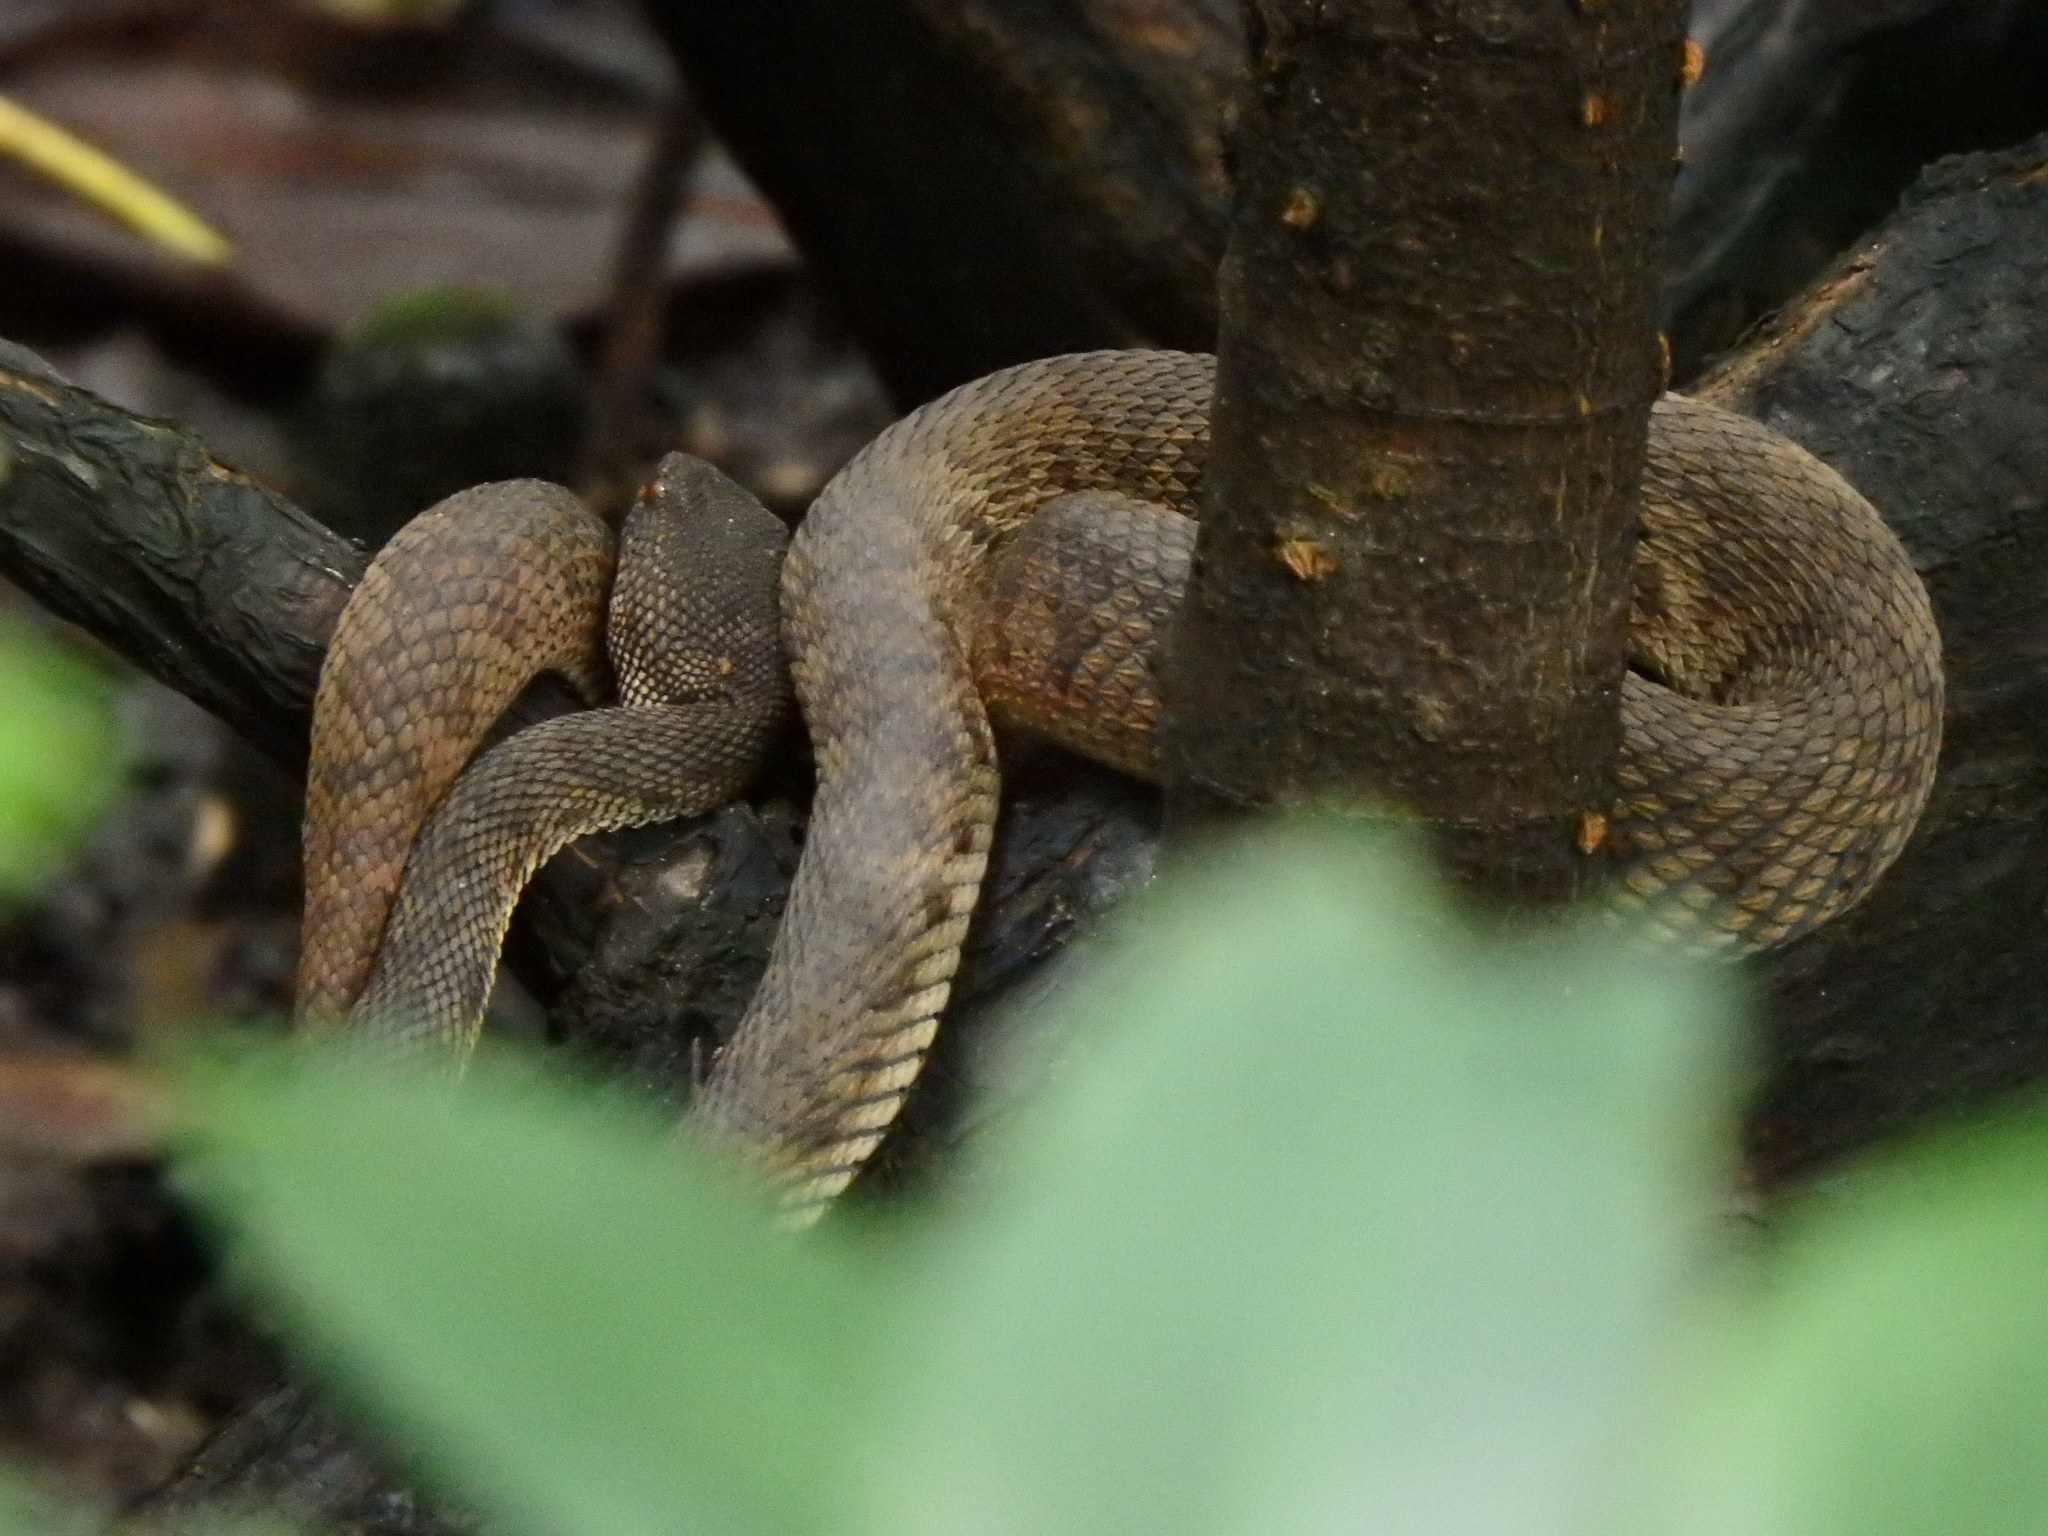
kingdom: Animalia
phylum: Chordata
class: Squamata
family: Viperidae
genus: Trimeresurus
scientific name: Trimeresurus purpureomaculatus
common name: Shore pit viper
